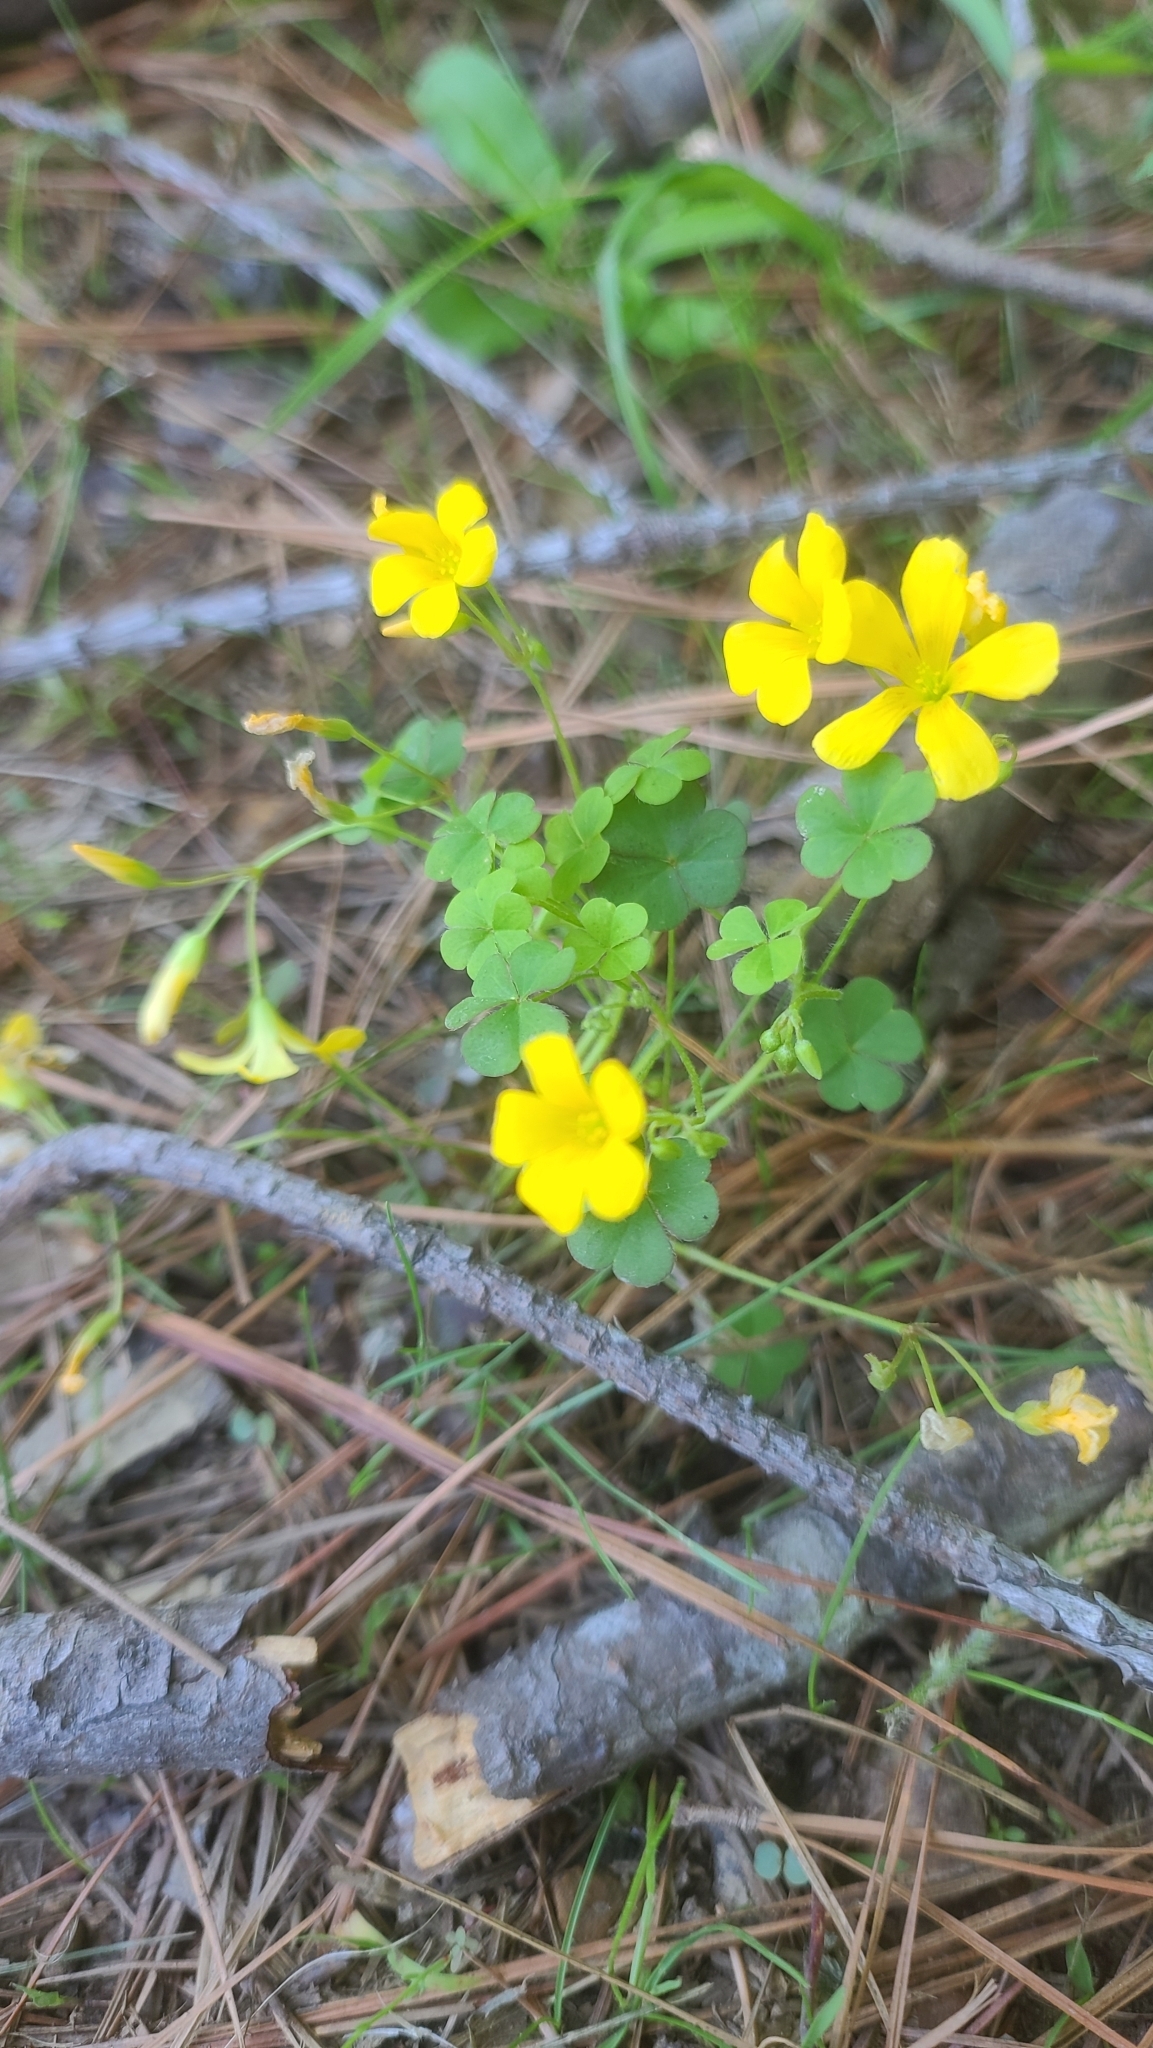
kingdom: Plantae
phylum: Tracheophyta
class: Magnoliopsida
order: Oxalidales
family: Oxalidaceae
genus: Oxalis
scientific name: Oxalis stricta
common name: Upright yellow-sorrel
